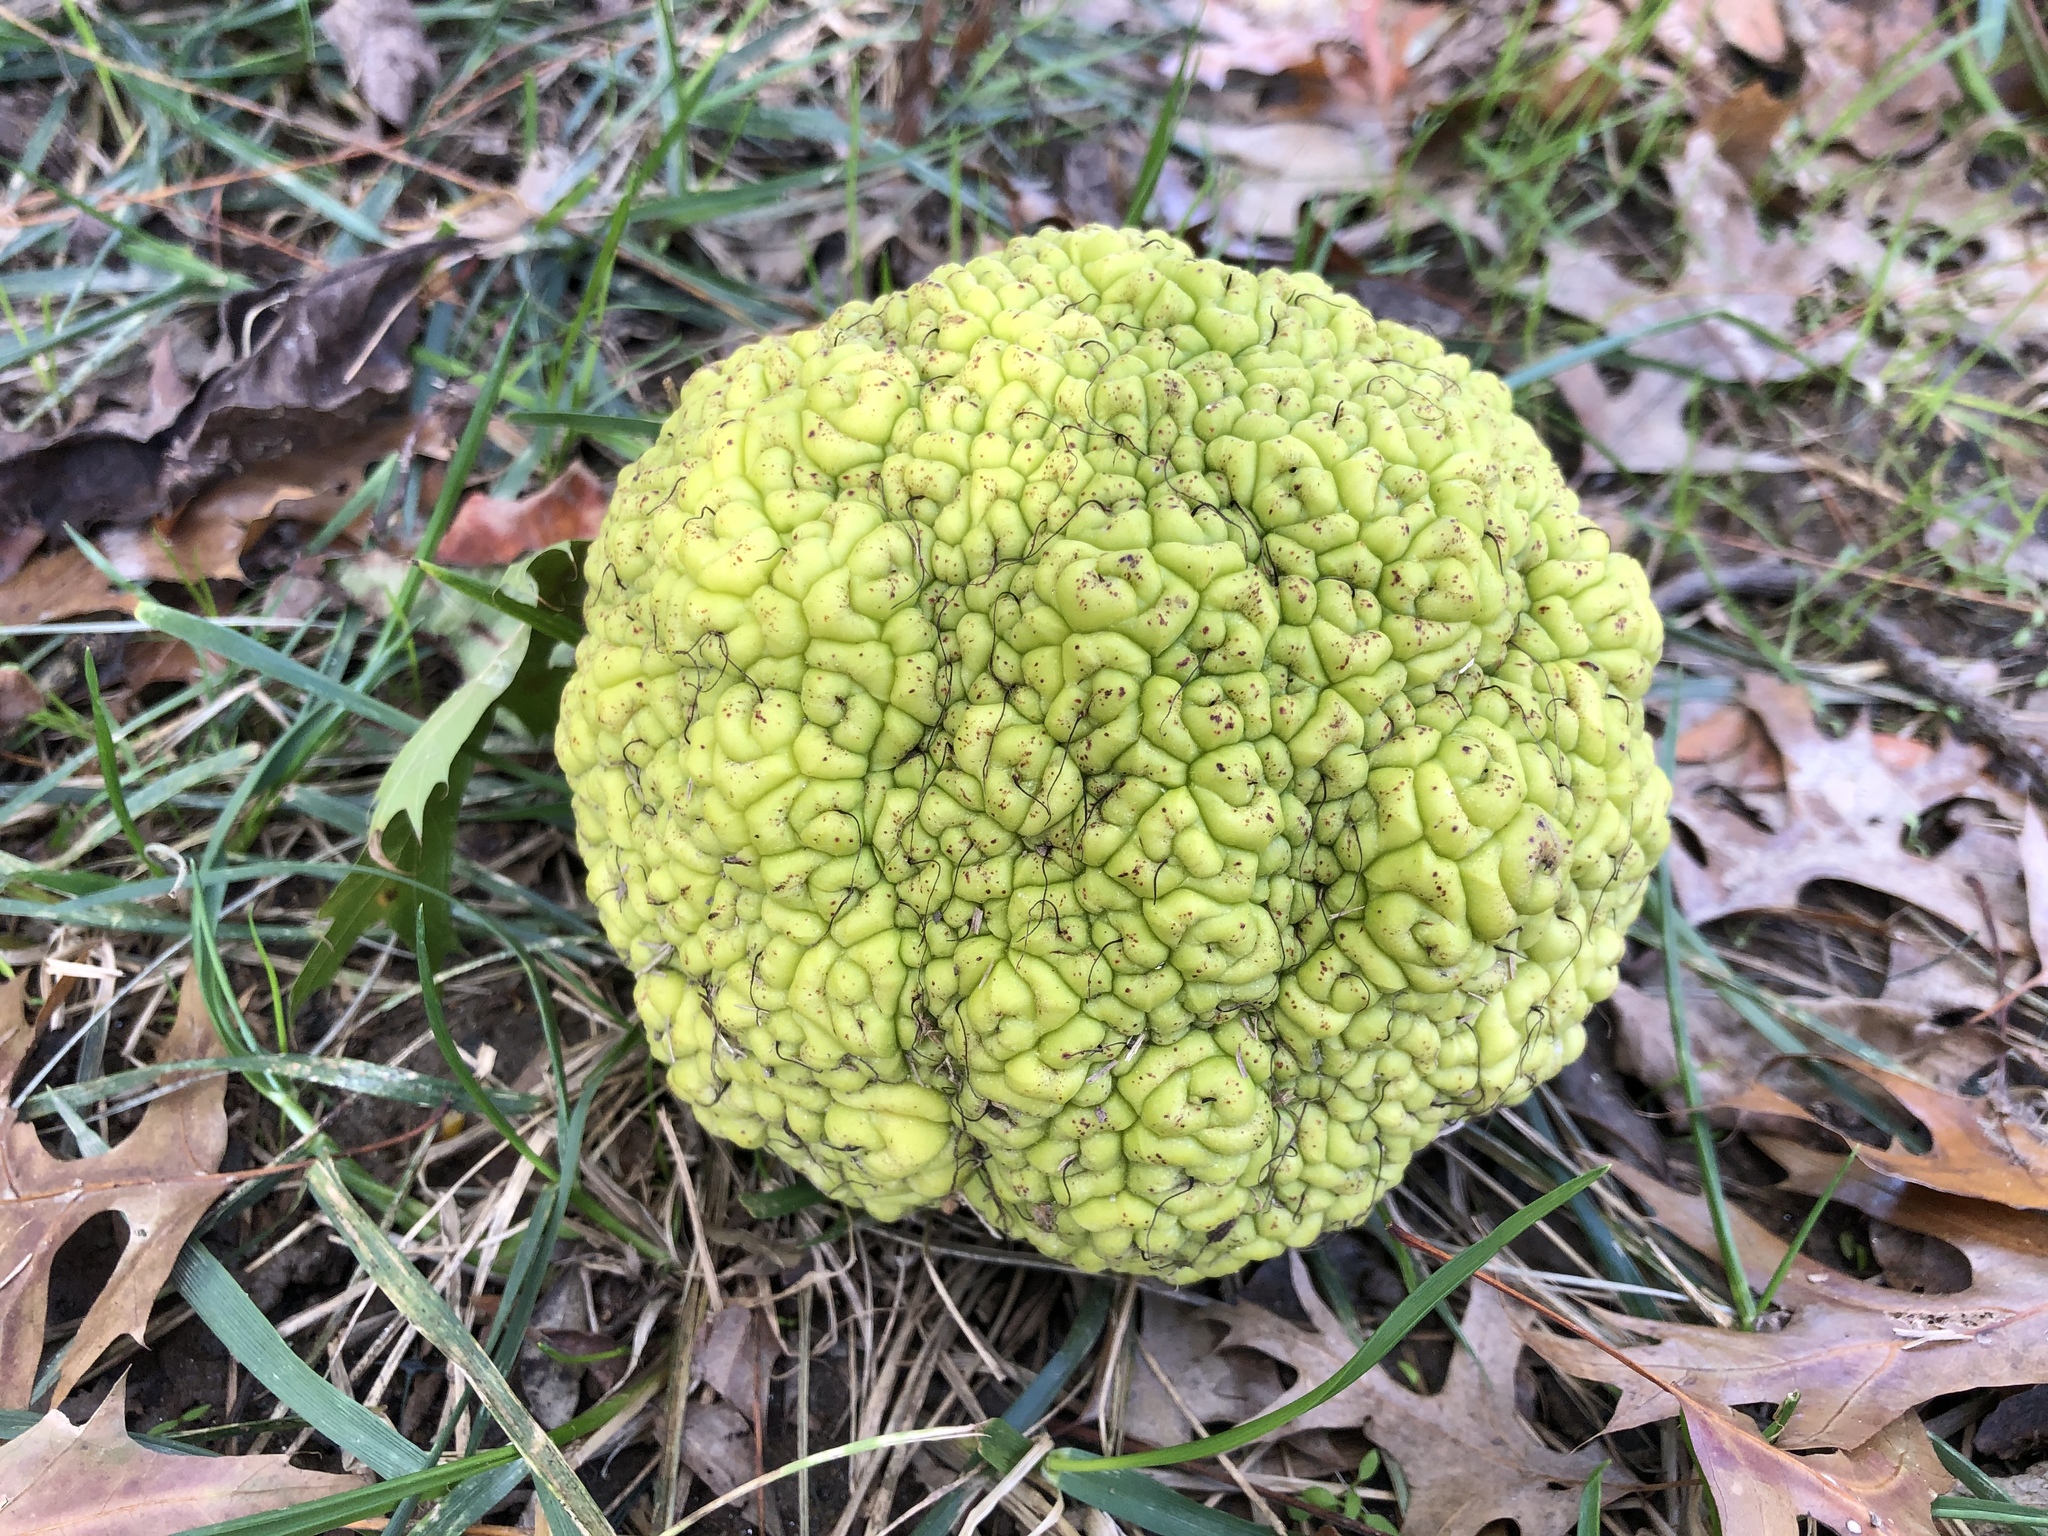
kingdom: Plantae
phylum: Tracheophyta
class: Magnoliopsida
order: Rosales
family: Moraceae
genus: Maclura
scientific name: Maclura pomifera
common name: Osage-orange
